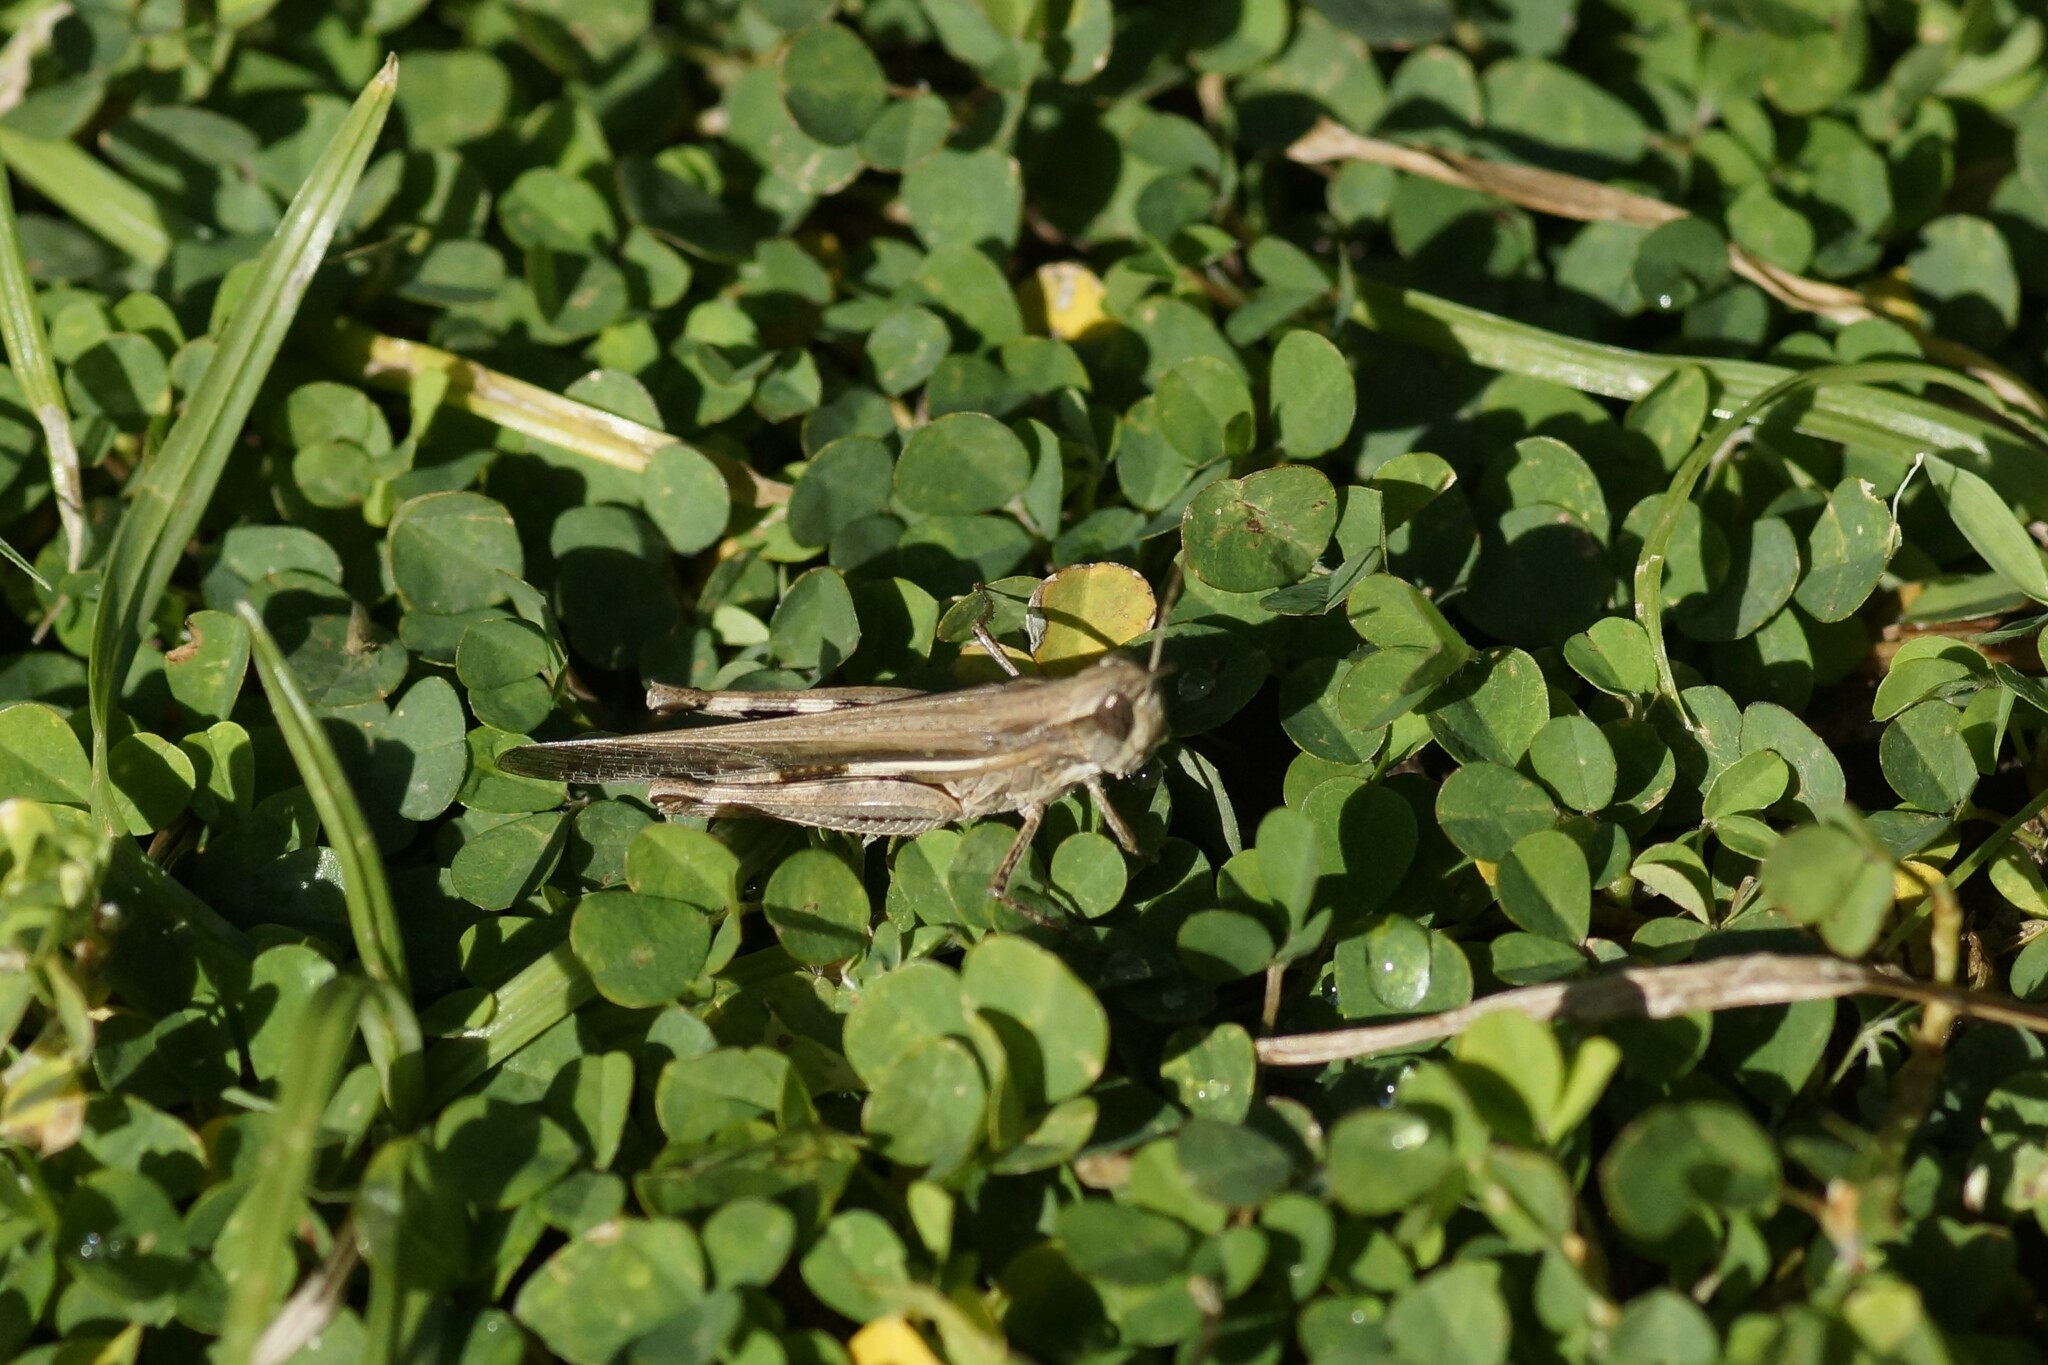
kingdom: Animalia
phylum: Arthropoda
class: Insecta
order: Orthoptera
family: Acrididae
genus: Aiolopus
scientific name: Aiolopus thalassinus
